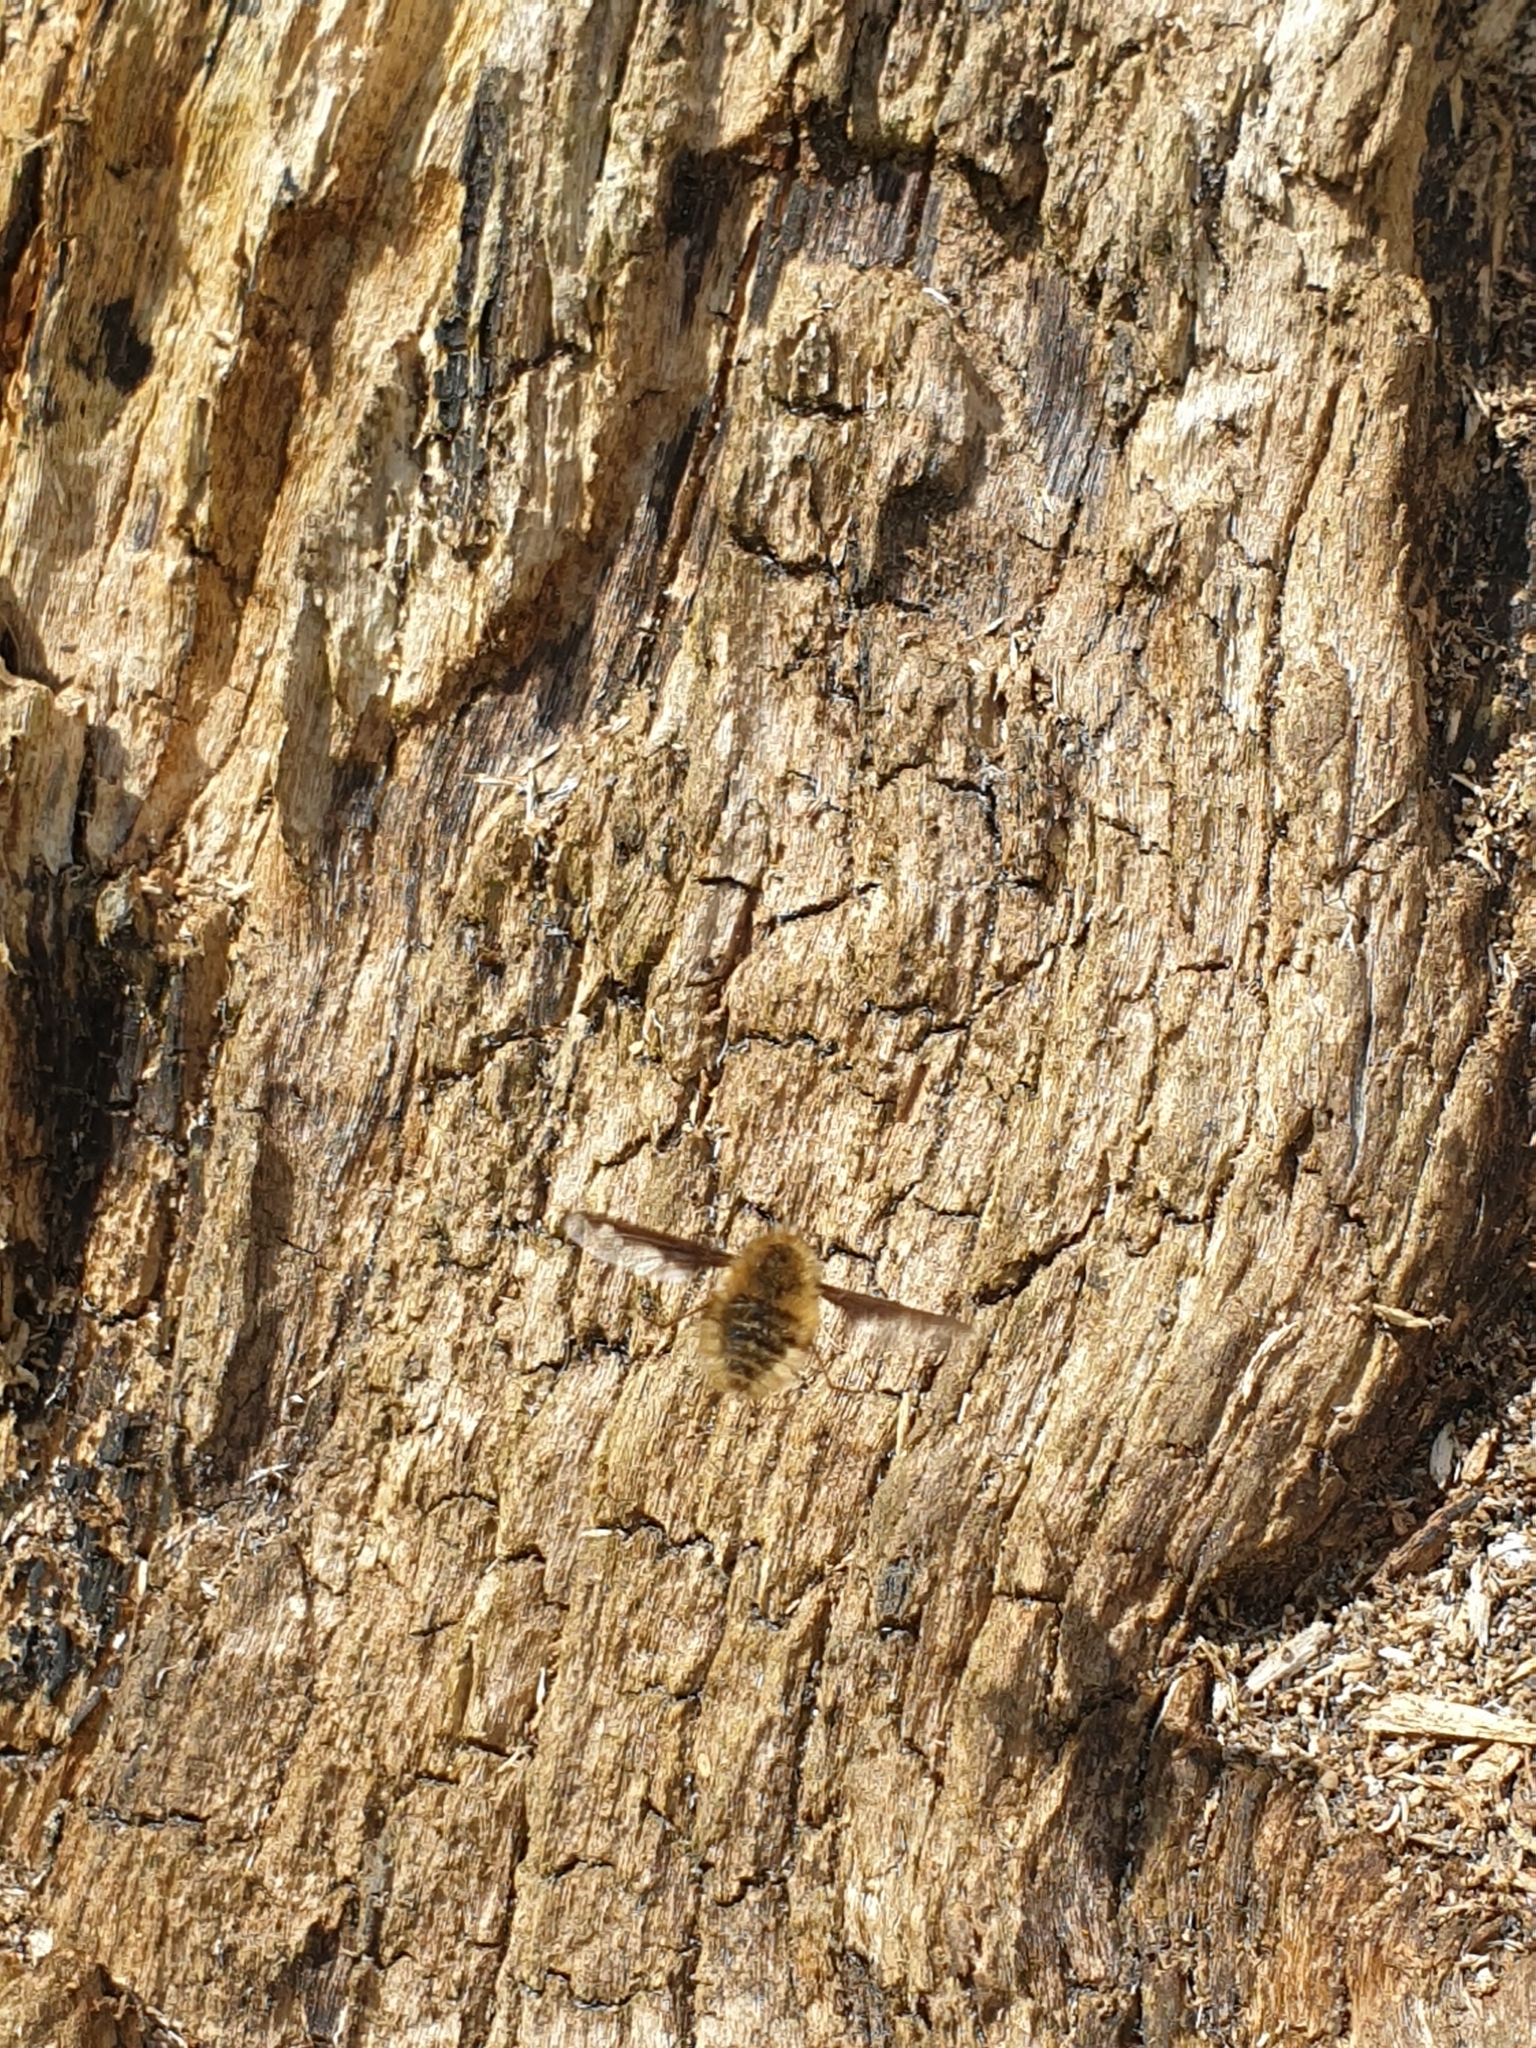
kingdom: Animalia
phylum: Arthropoda
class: Insecta
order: Diptera
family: Bombyliidae
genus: Bombylius
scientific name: Bombylius major
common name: Bee fly
